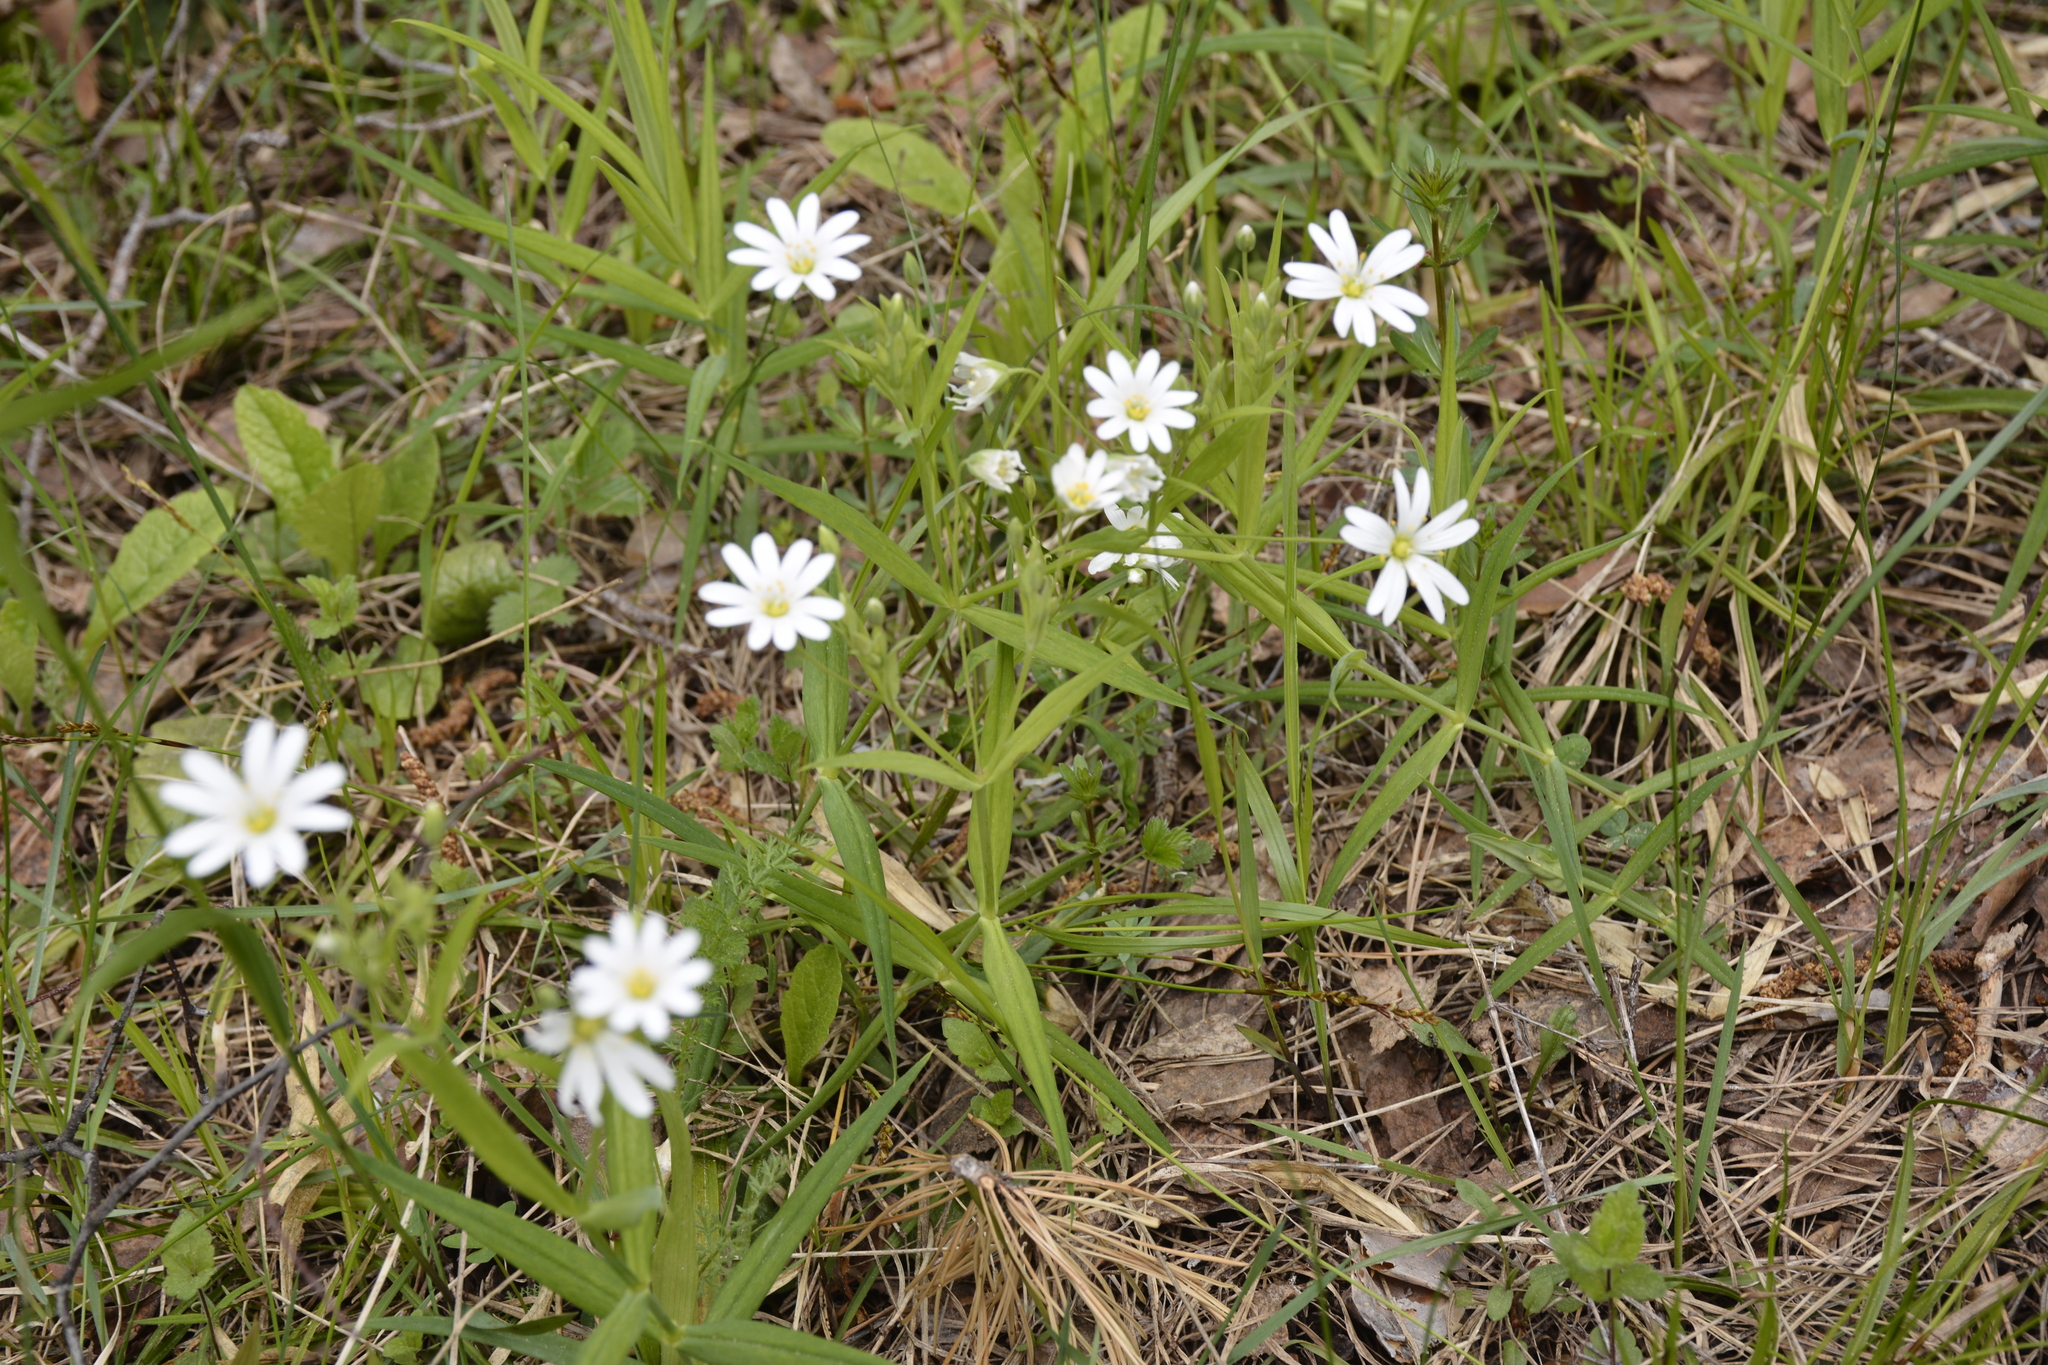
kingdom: Plantae
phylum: Tracheophyta
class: Magnoliopsida
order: Caryophyllales
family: Caryophyllaceae
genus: Rabelera
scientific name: Rabelera holostea
